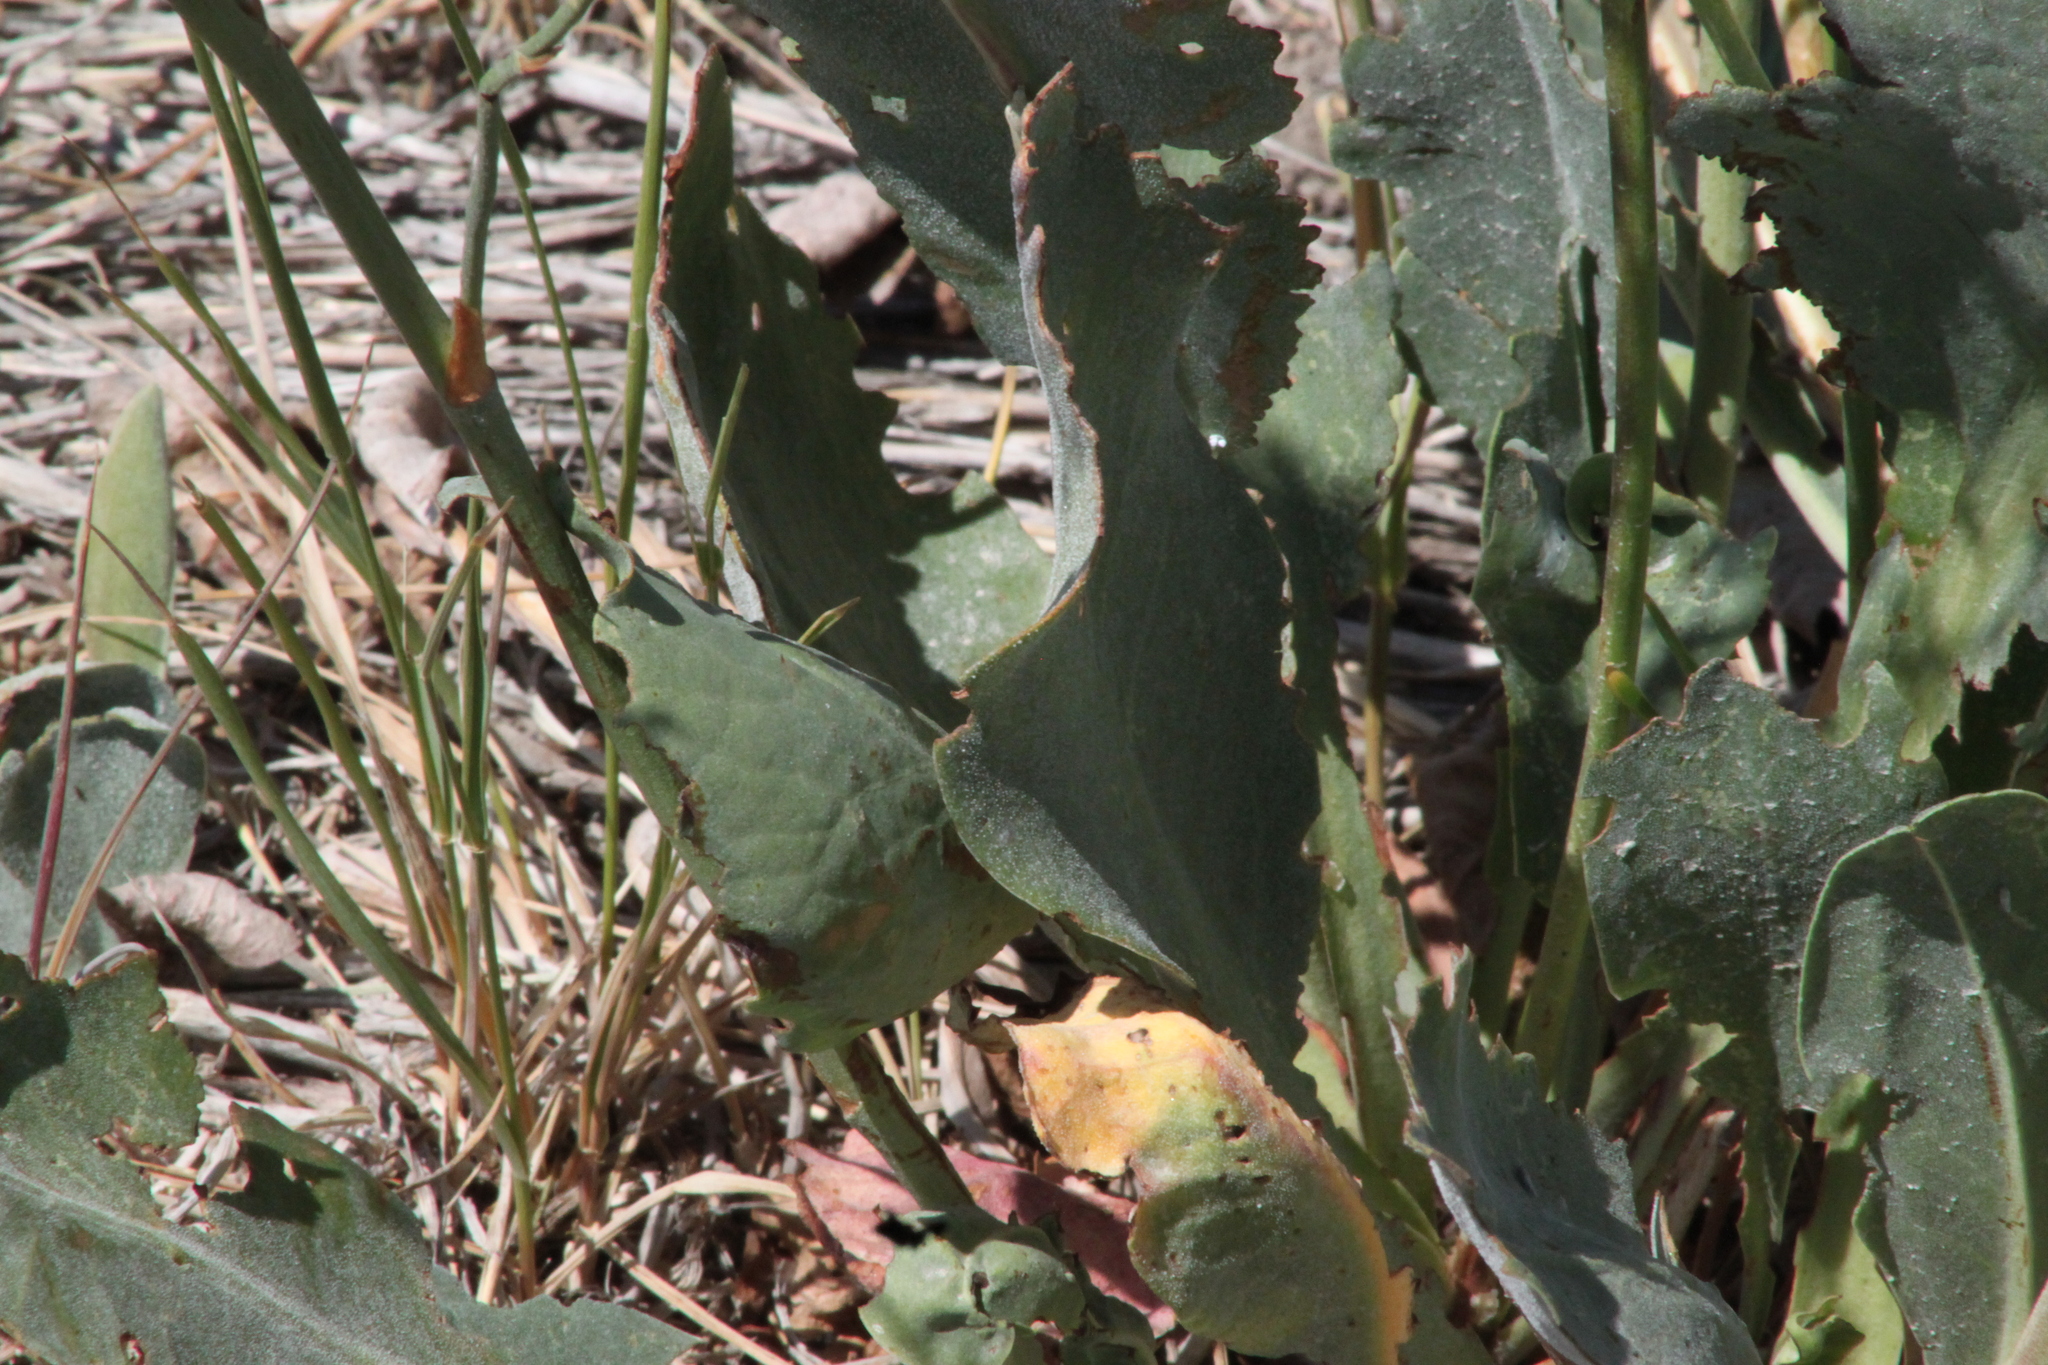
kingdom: Plantae
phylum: Tracheophyta
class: Magnoliopsida
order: Caryophyllales
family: Plumbaginaceae
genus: Limonium
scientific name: Limonium gmelini
